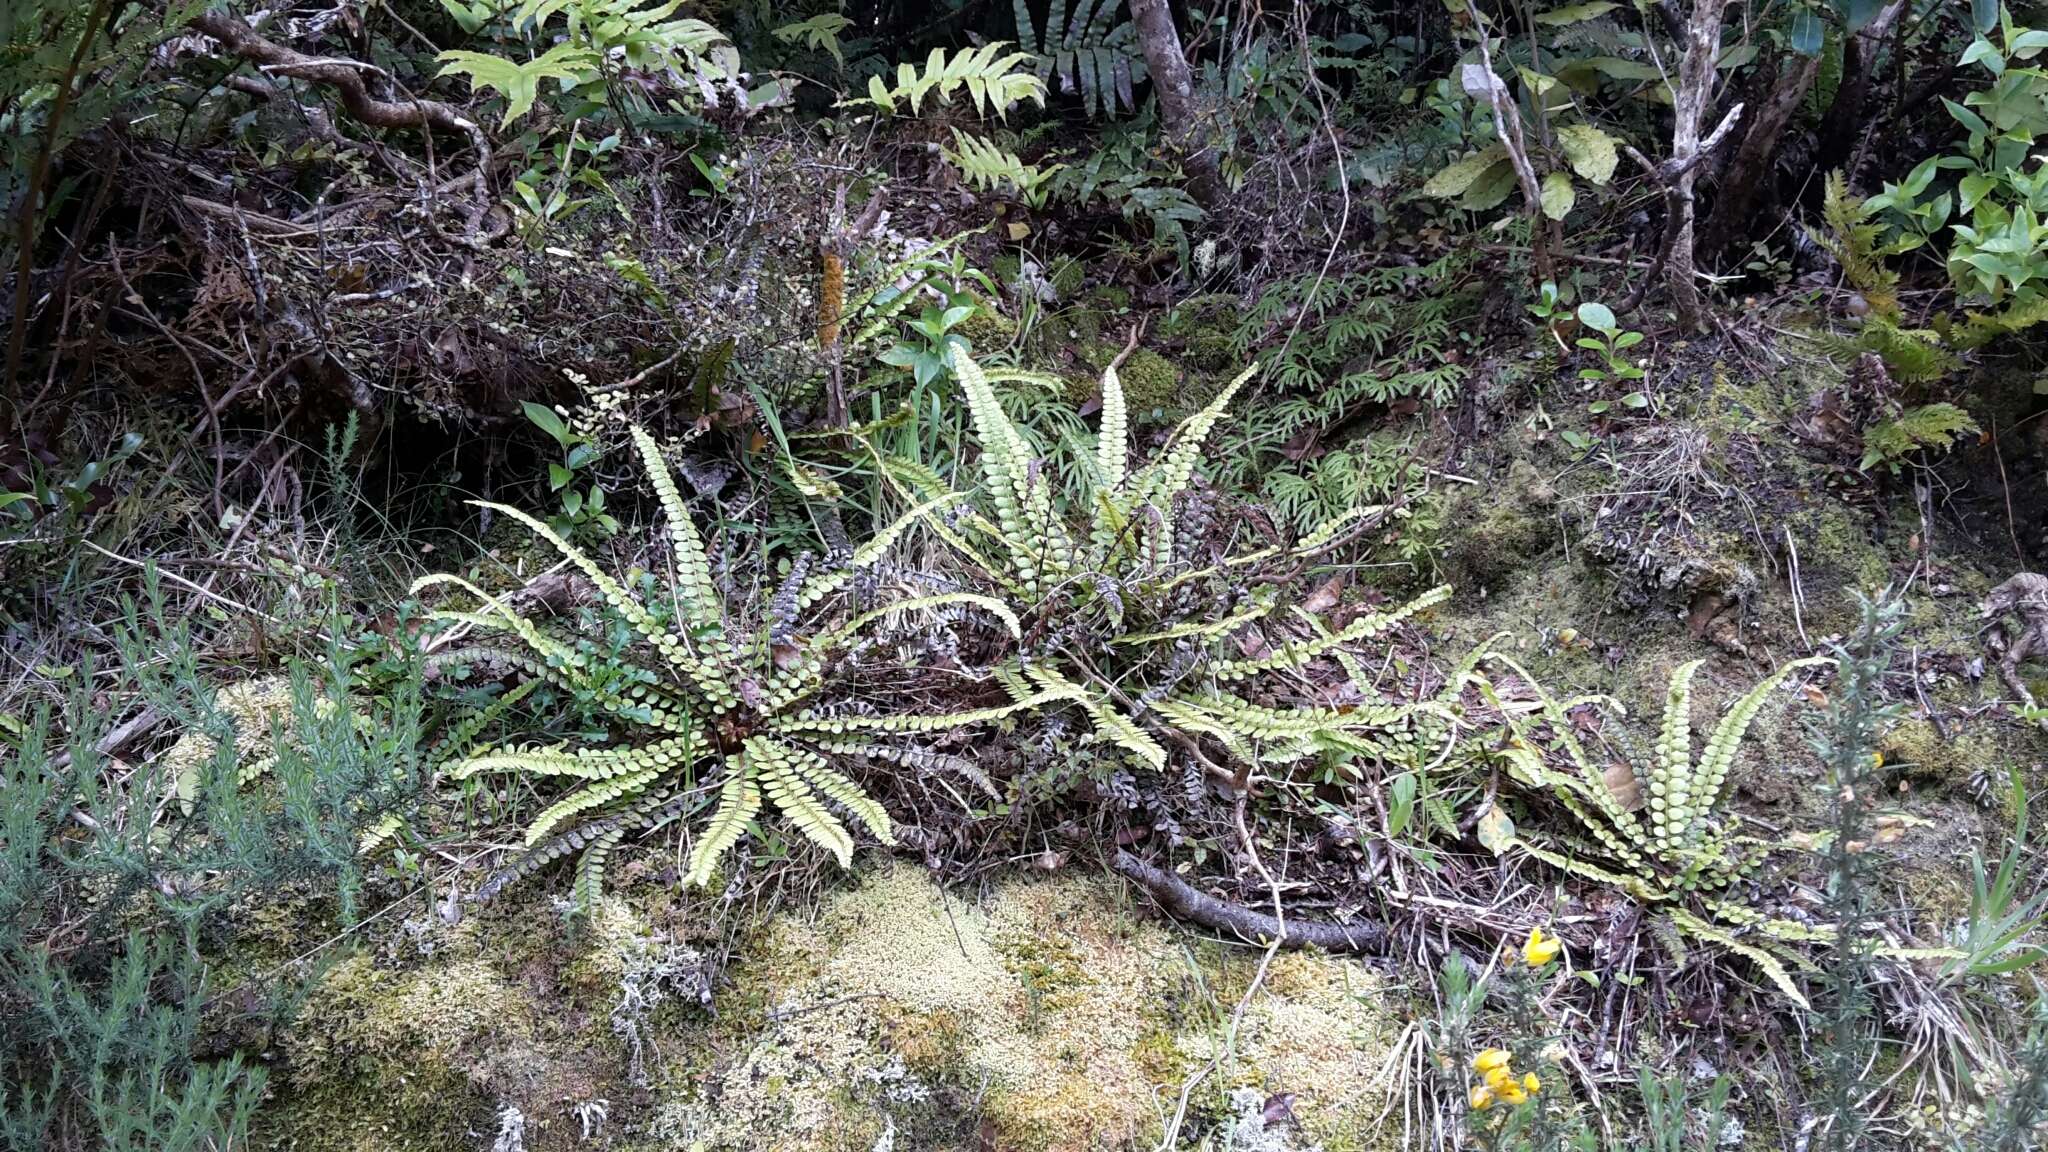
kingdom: Plantae
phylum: Tracheophyta
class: Polypodiopsida
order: Polypodiales
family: Blechnaceae
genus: Cranfillia
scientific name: Cranfillia fluviatilis
